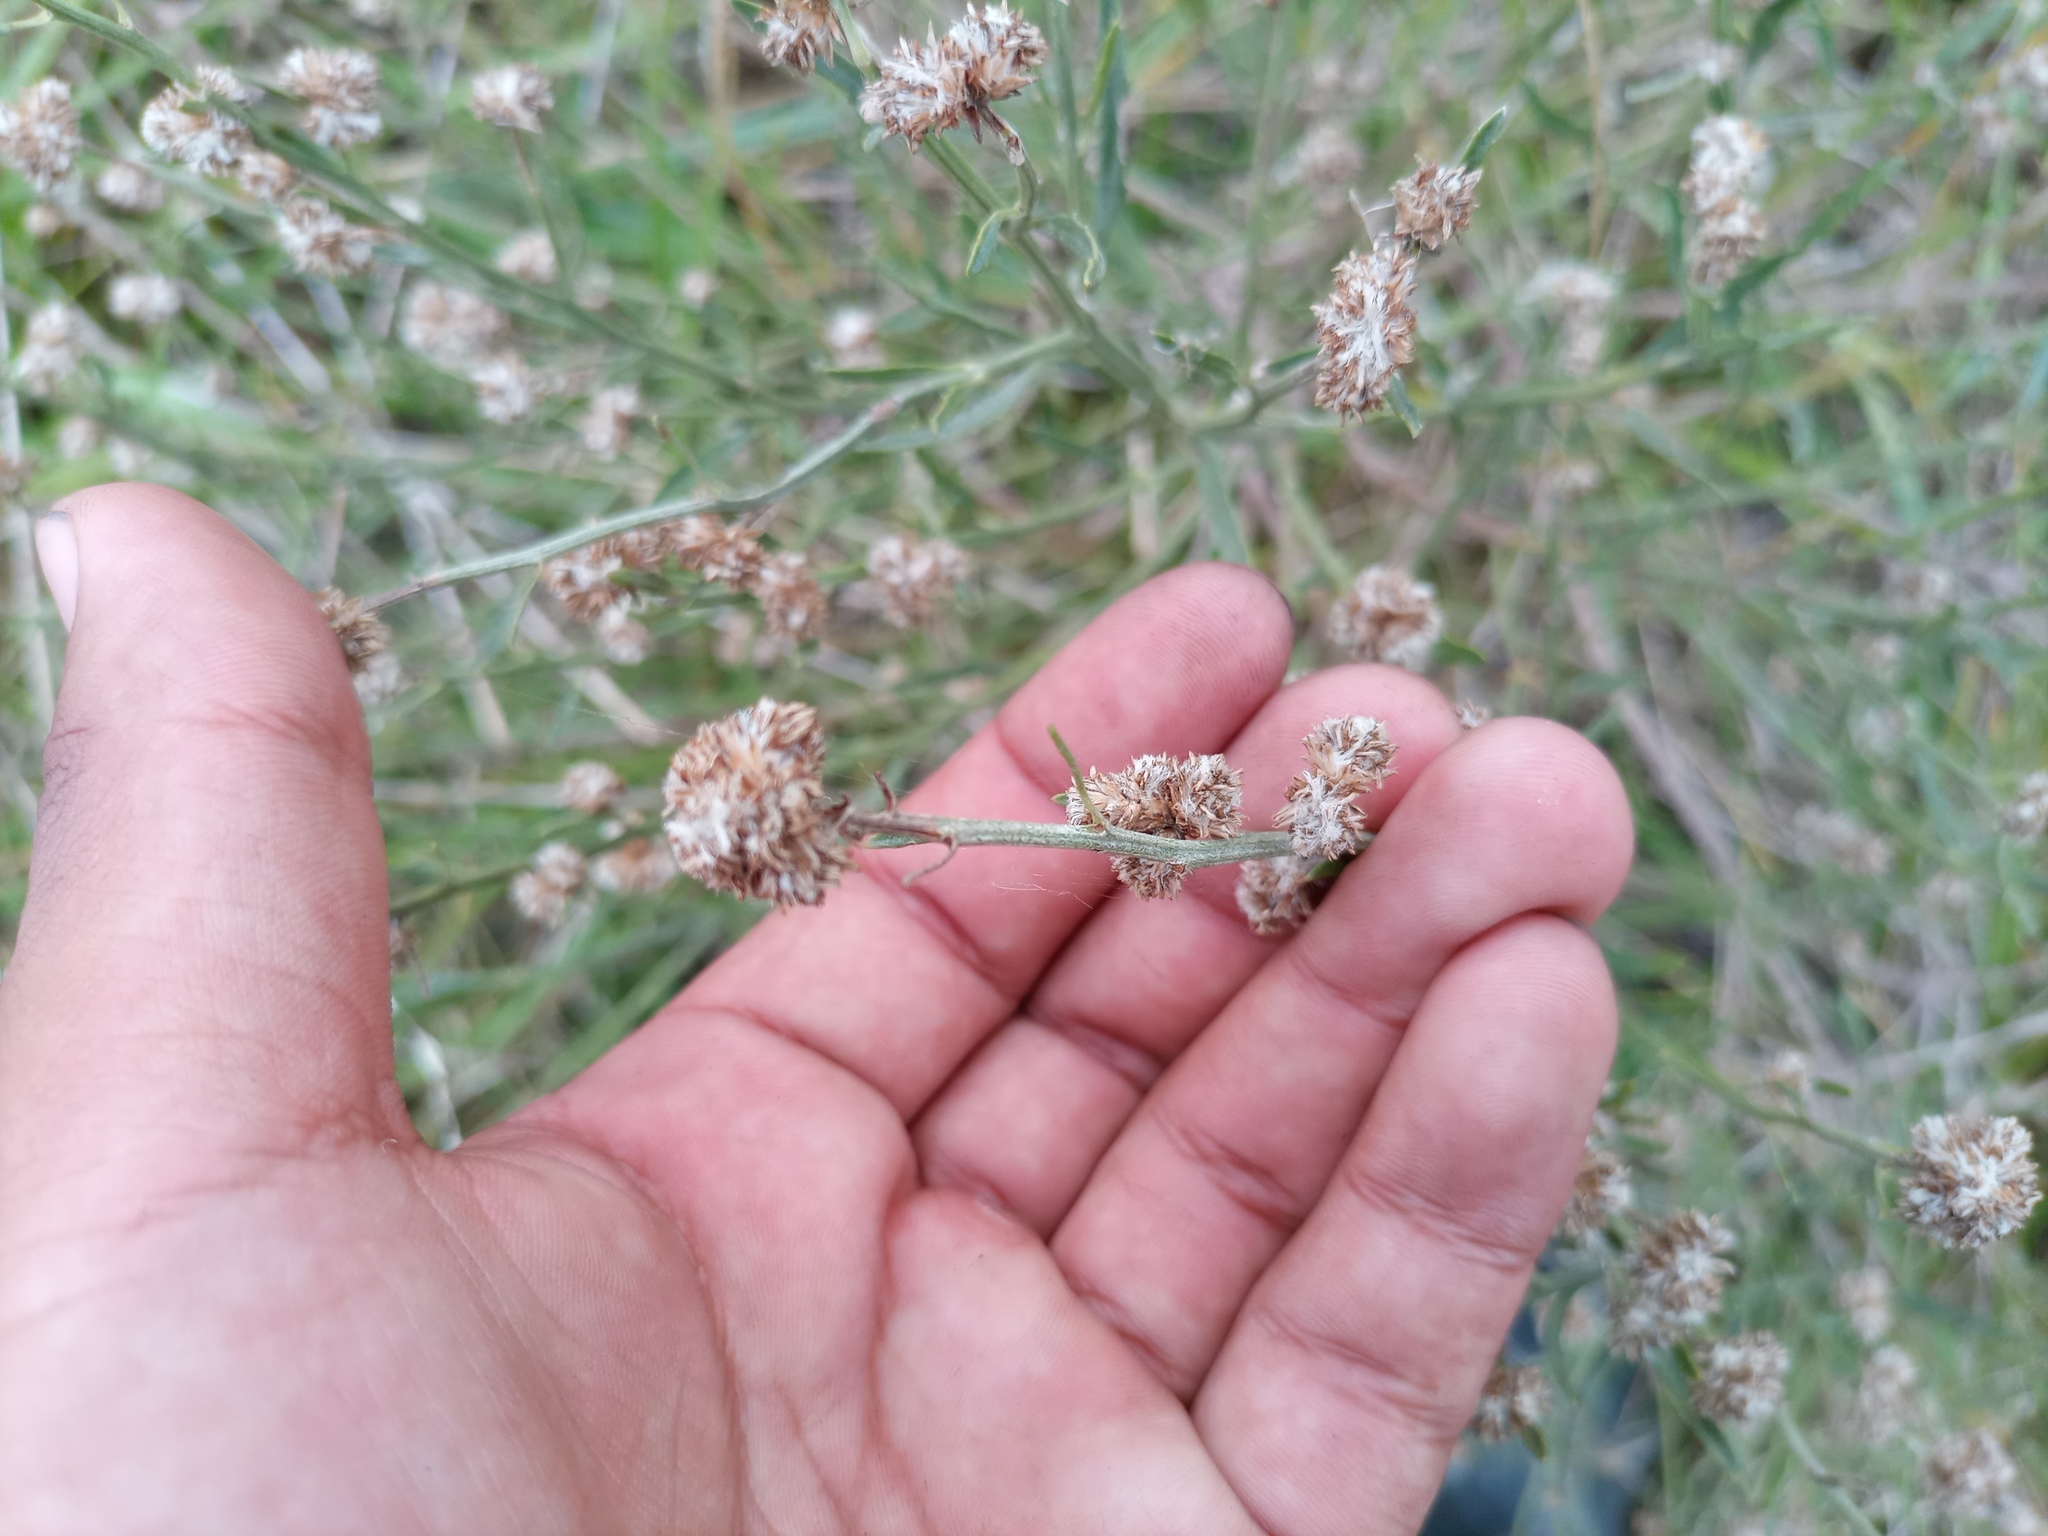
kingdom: Plantae
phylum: Tracheophyta
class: Magnoliopsida
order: Asterales
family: Asteraceae
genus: Baccharis
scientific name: Baccharis spicata
